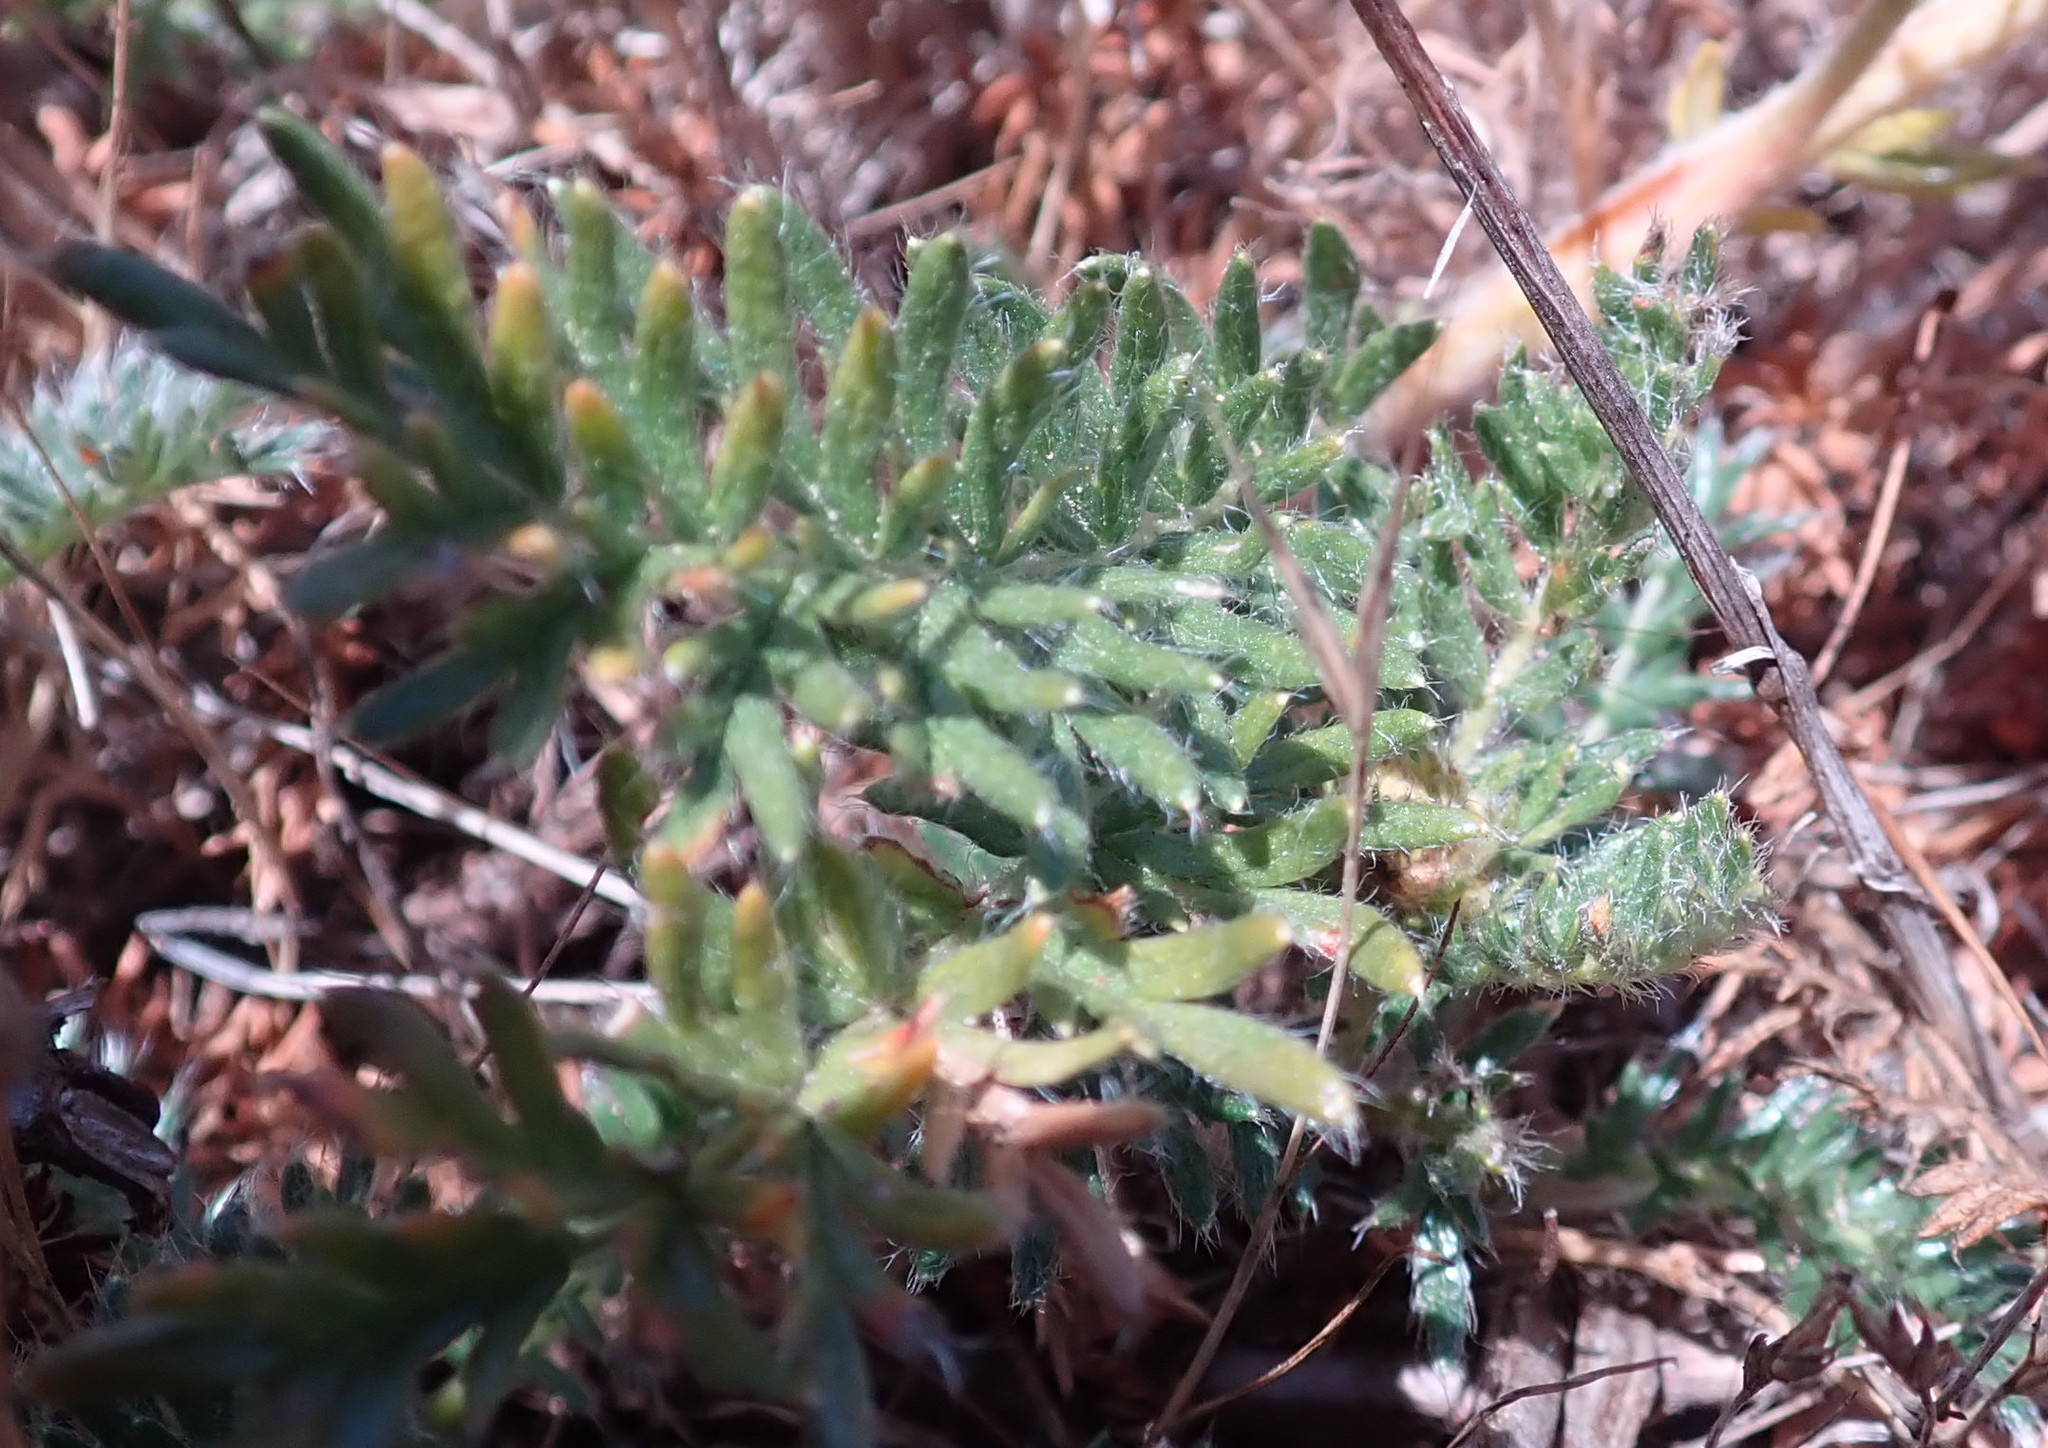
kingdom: Plantae
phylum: Tracheophyta
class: Magnoliopsida
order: Rosales
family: Rosaceae
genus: Acaena
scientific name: Acaena pinnatifida
